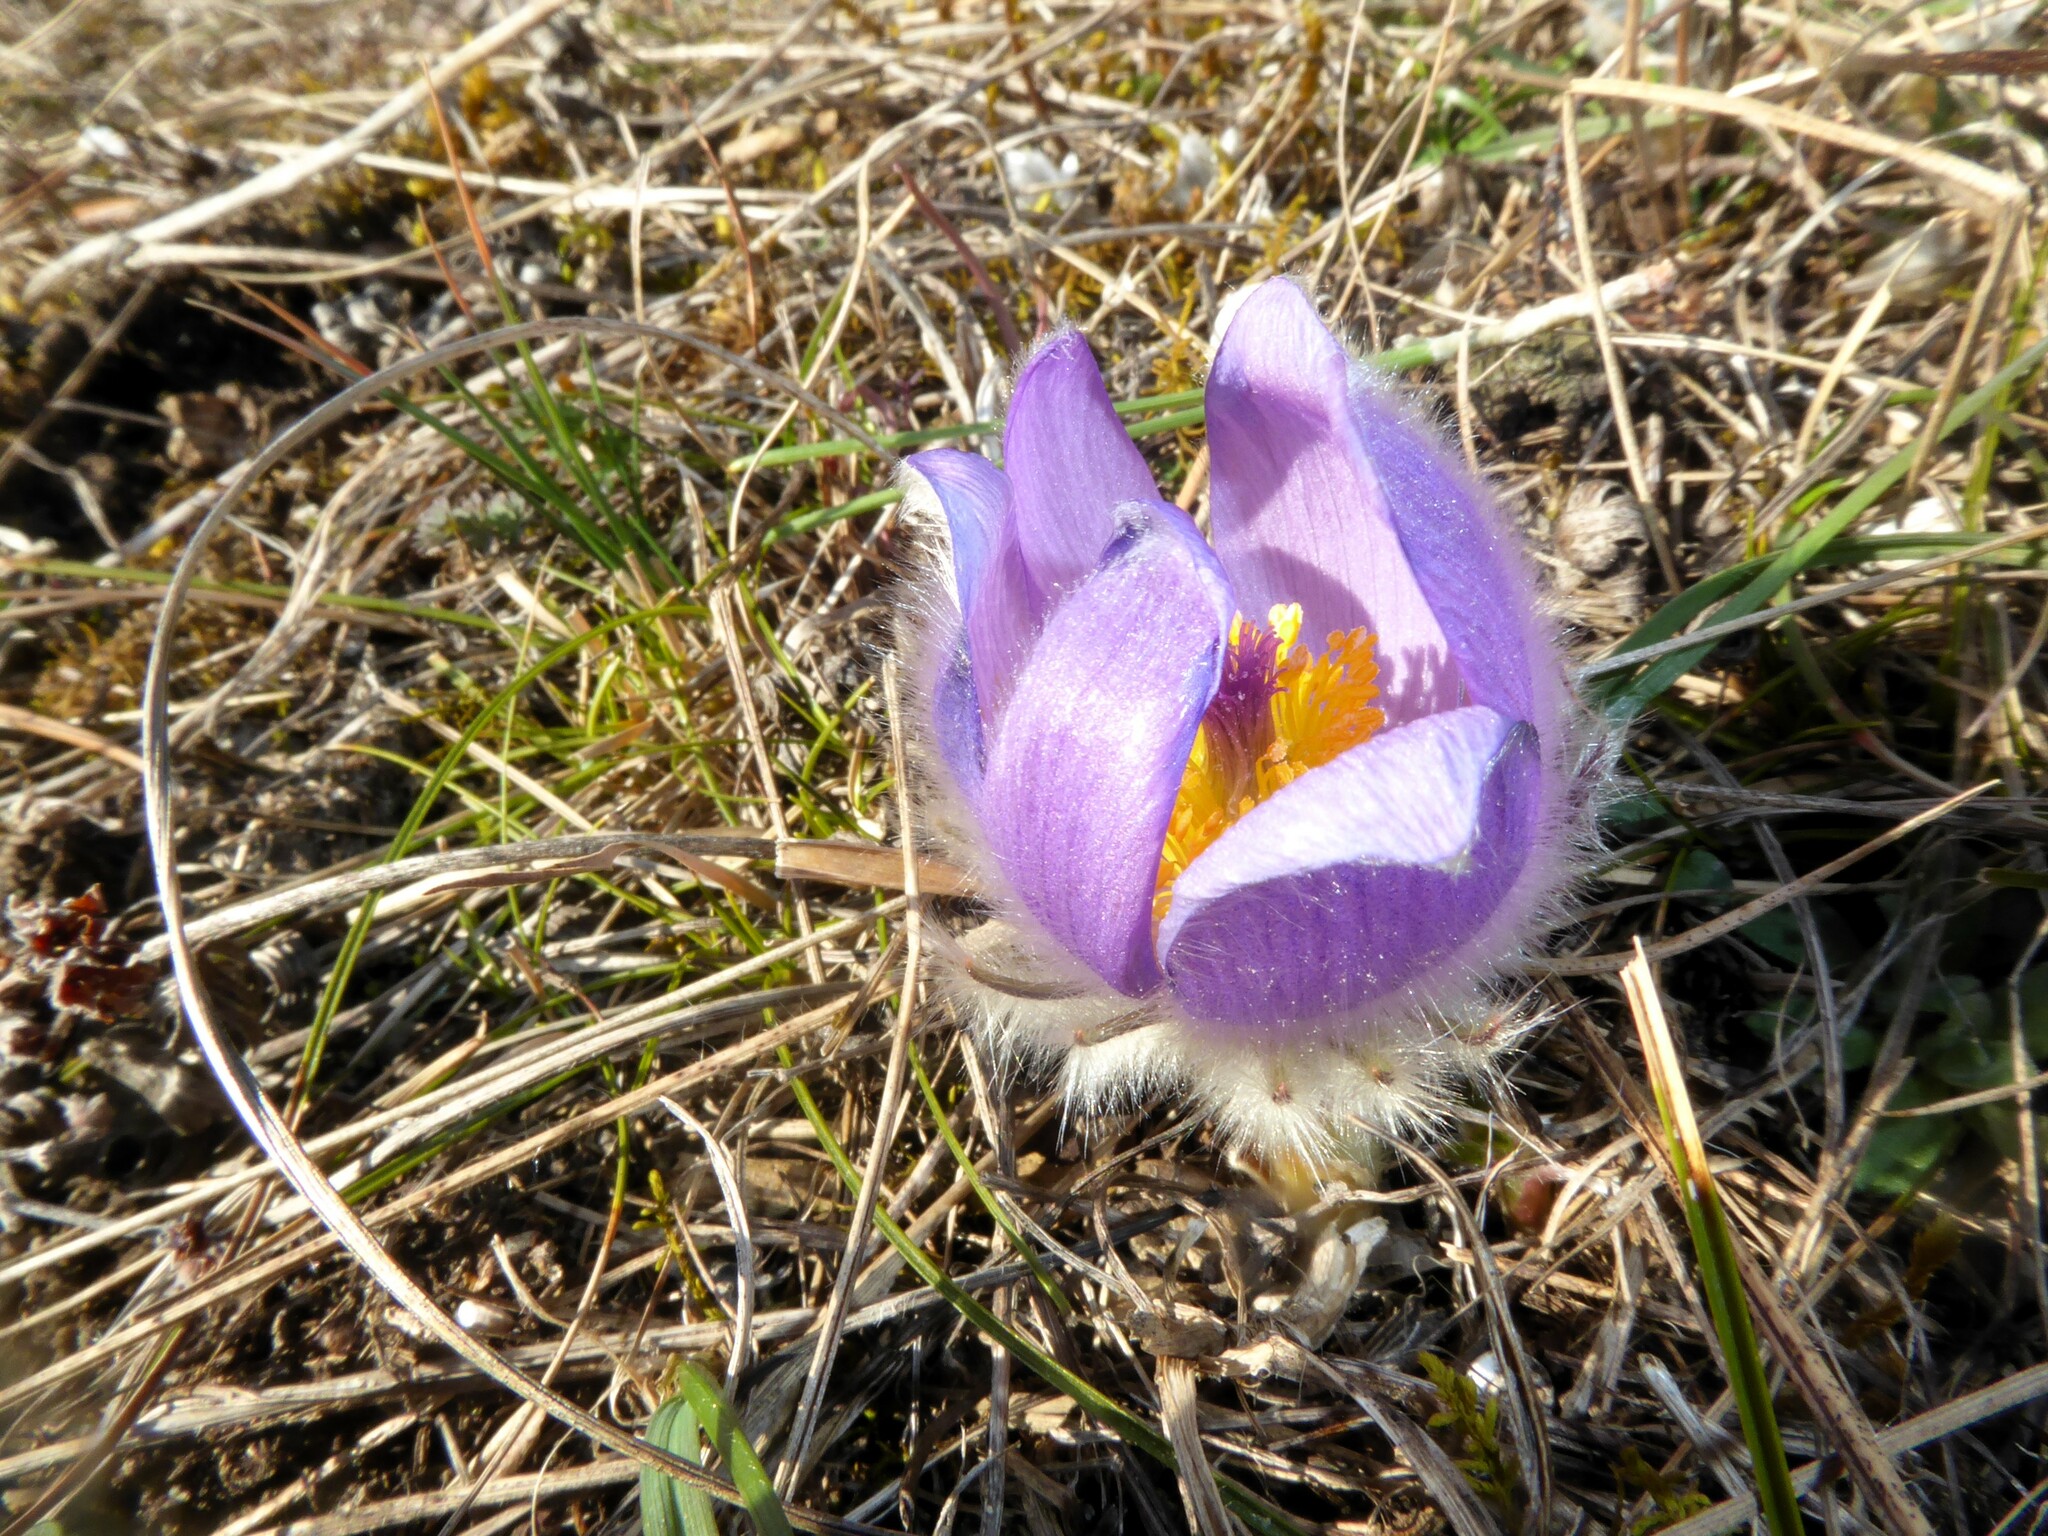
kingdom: Plantae
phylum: Tracheophyta
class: Magnoliopsida
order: Ranunculales
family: Ranunculaceae
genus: Pulsatilla
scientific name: Pulsatilla grandis
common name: Greater pasque flower
